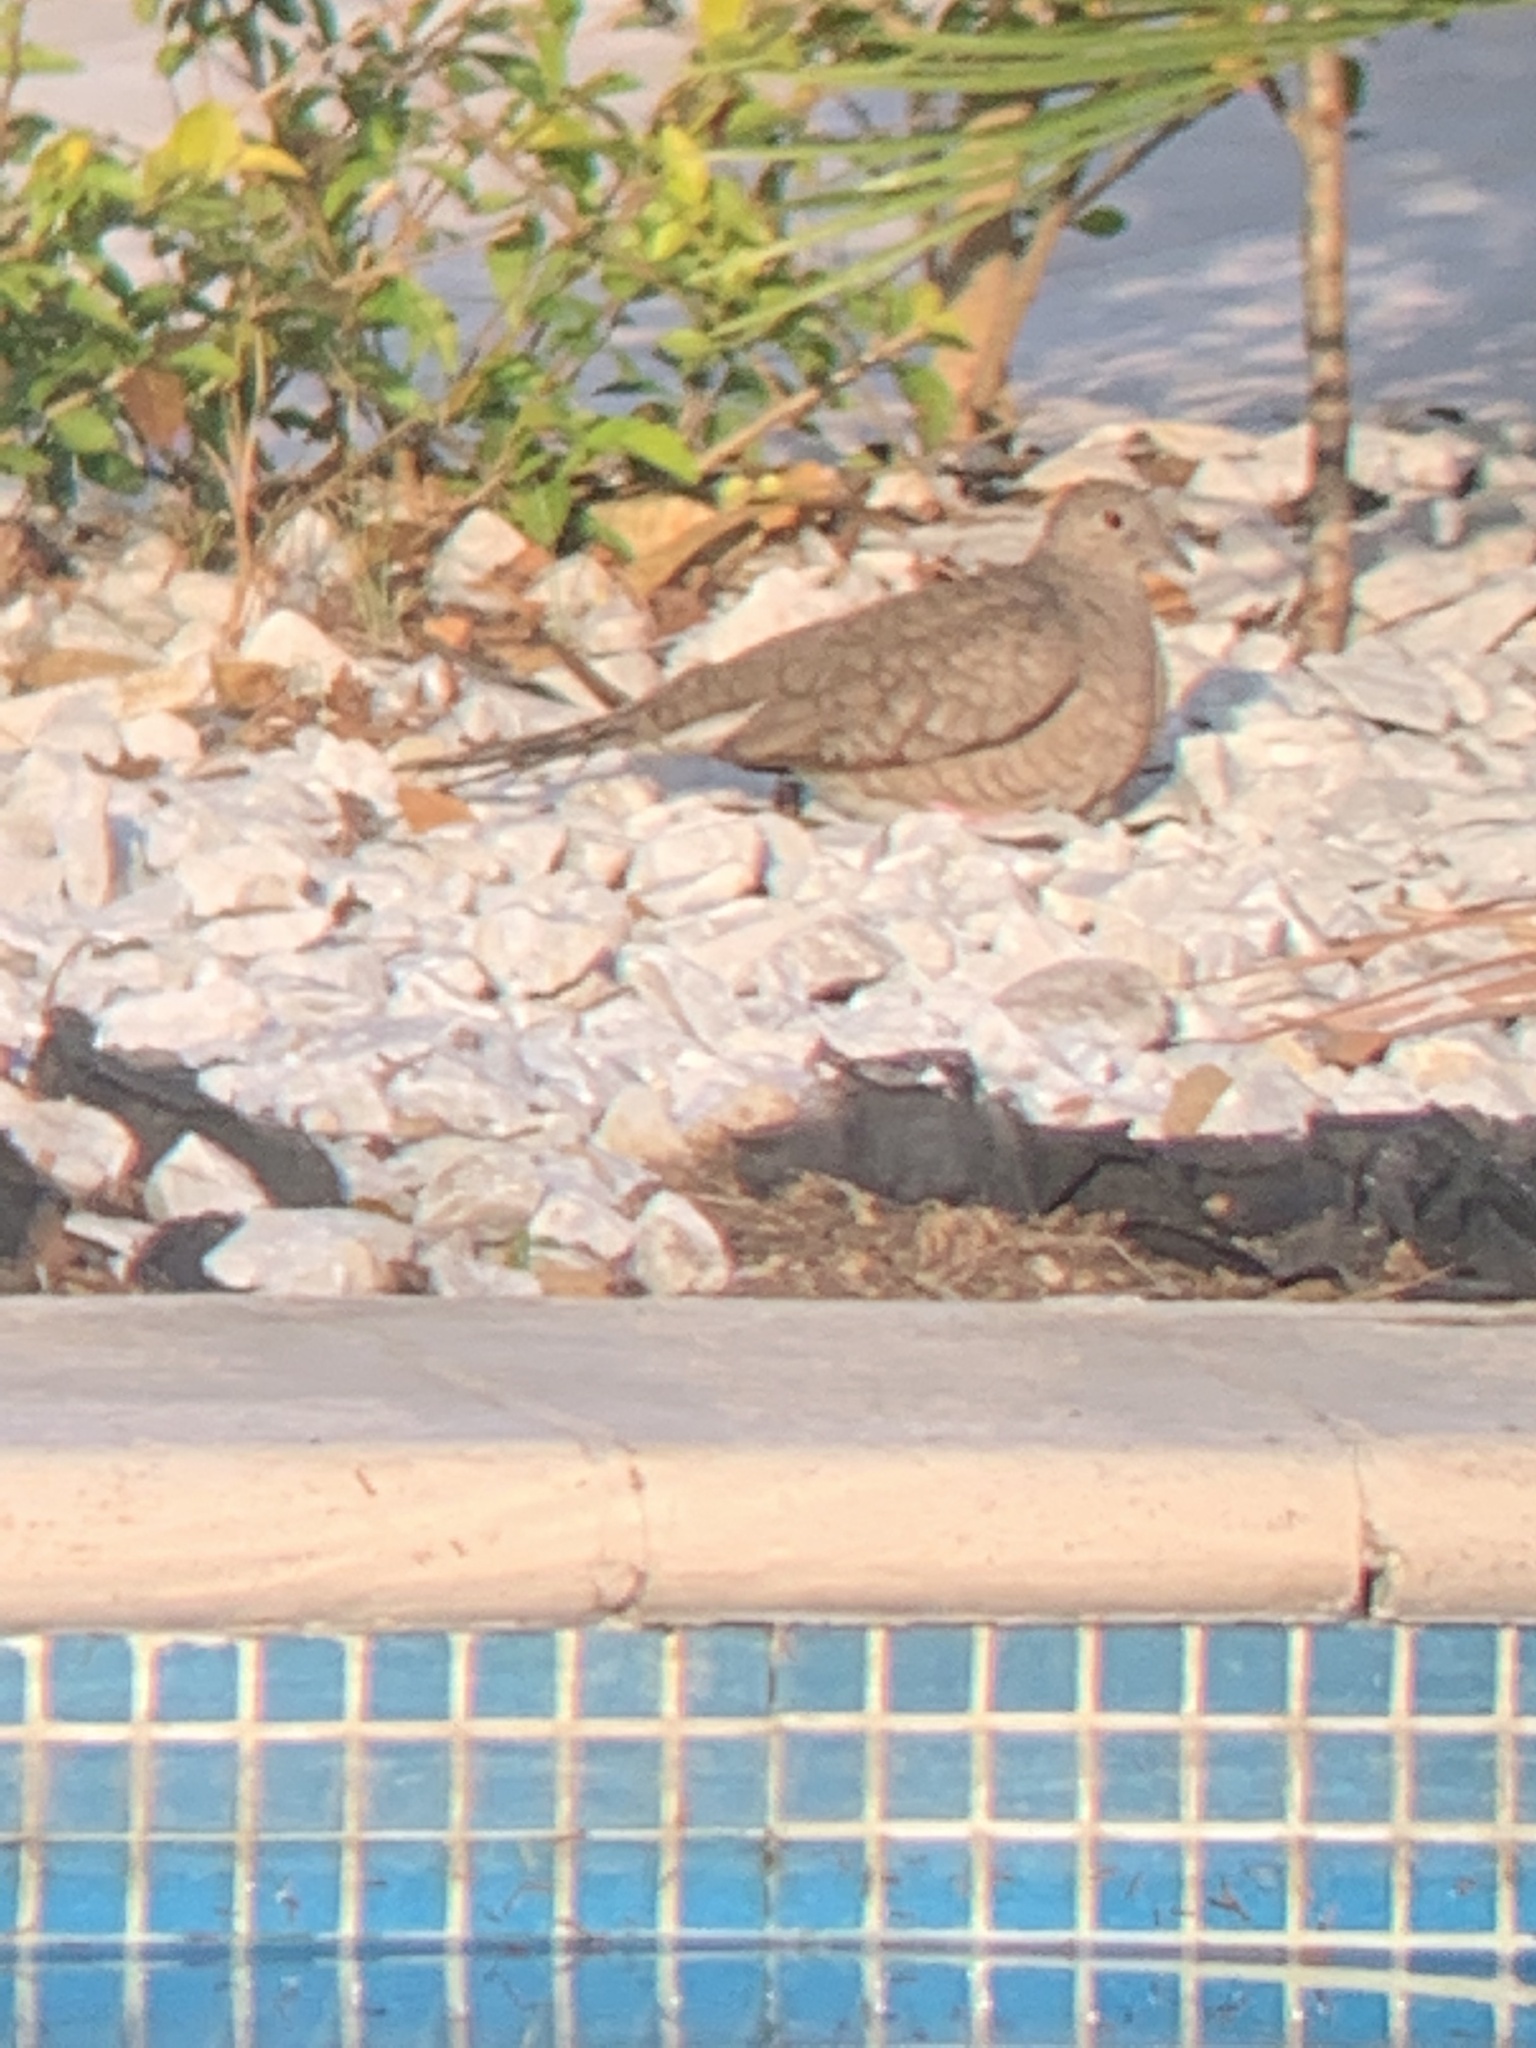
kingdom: Animalia
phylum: Chordata
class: Aves
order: Columbiformes
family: Columbidae
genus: Columbina
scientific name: Columbina inca
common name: Inca dove
